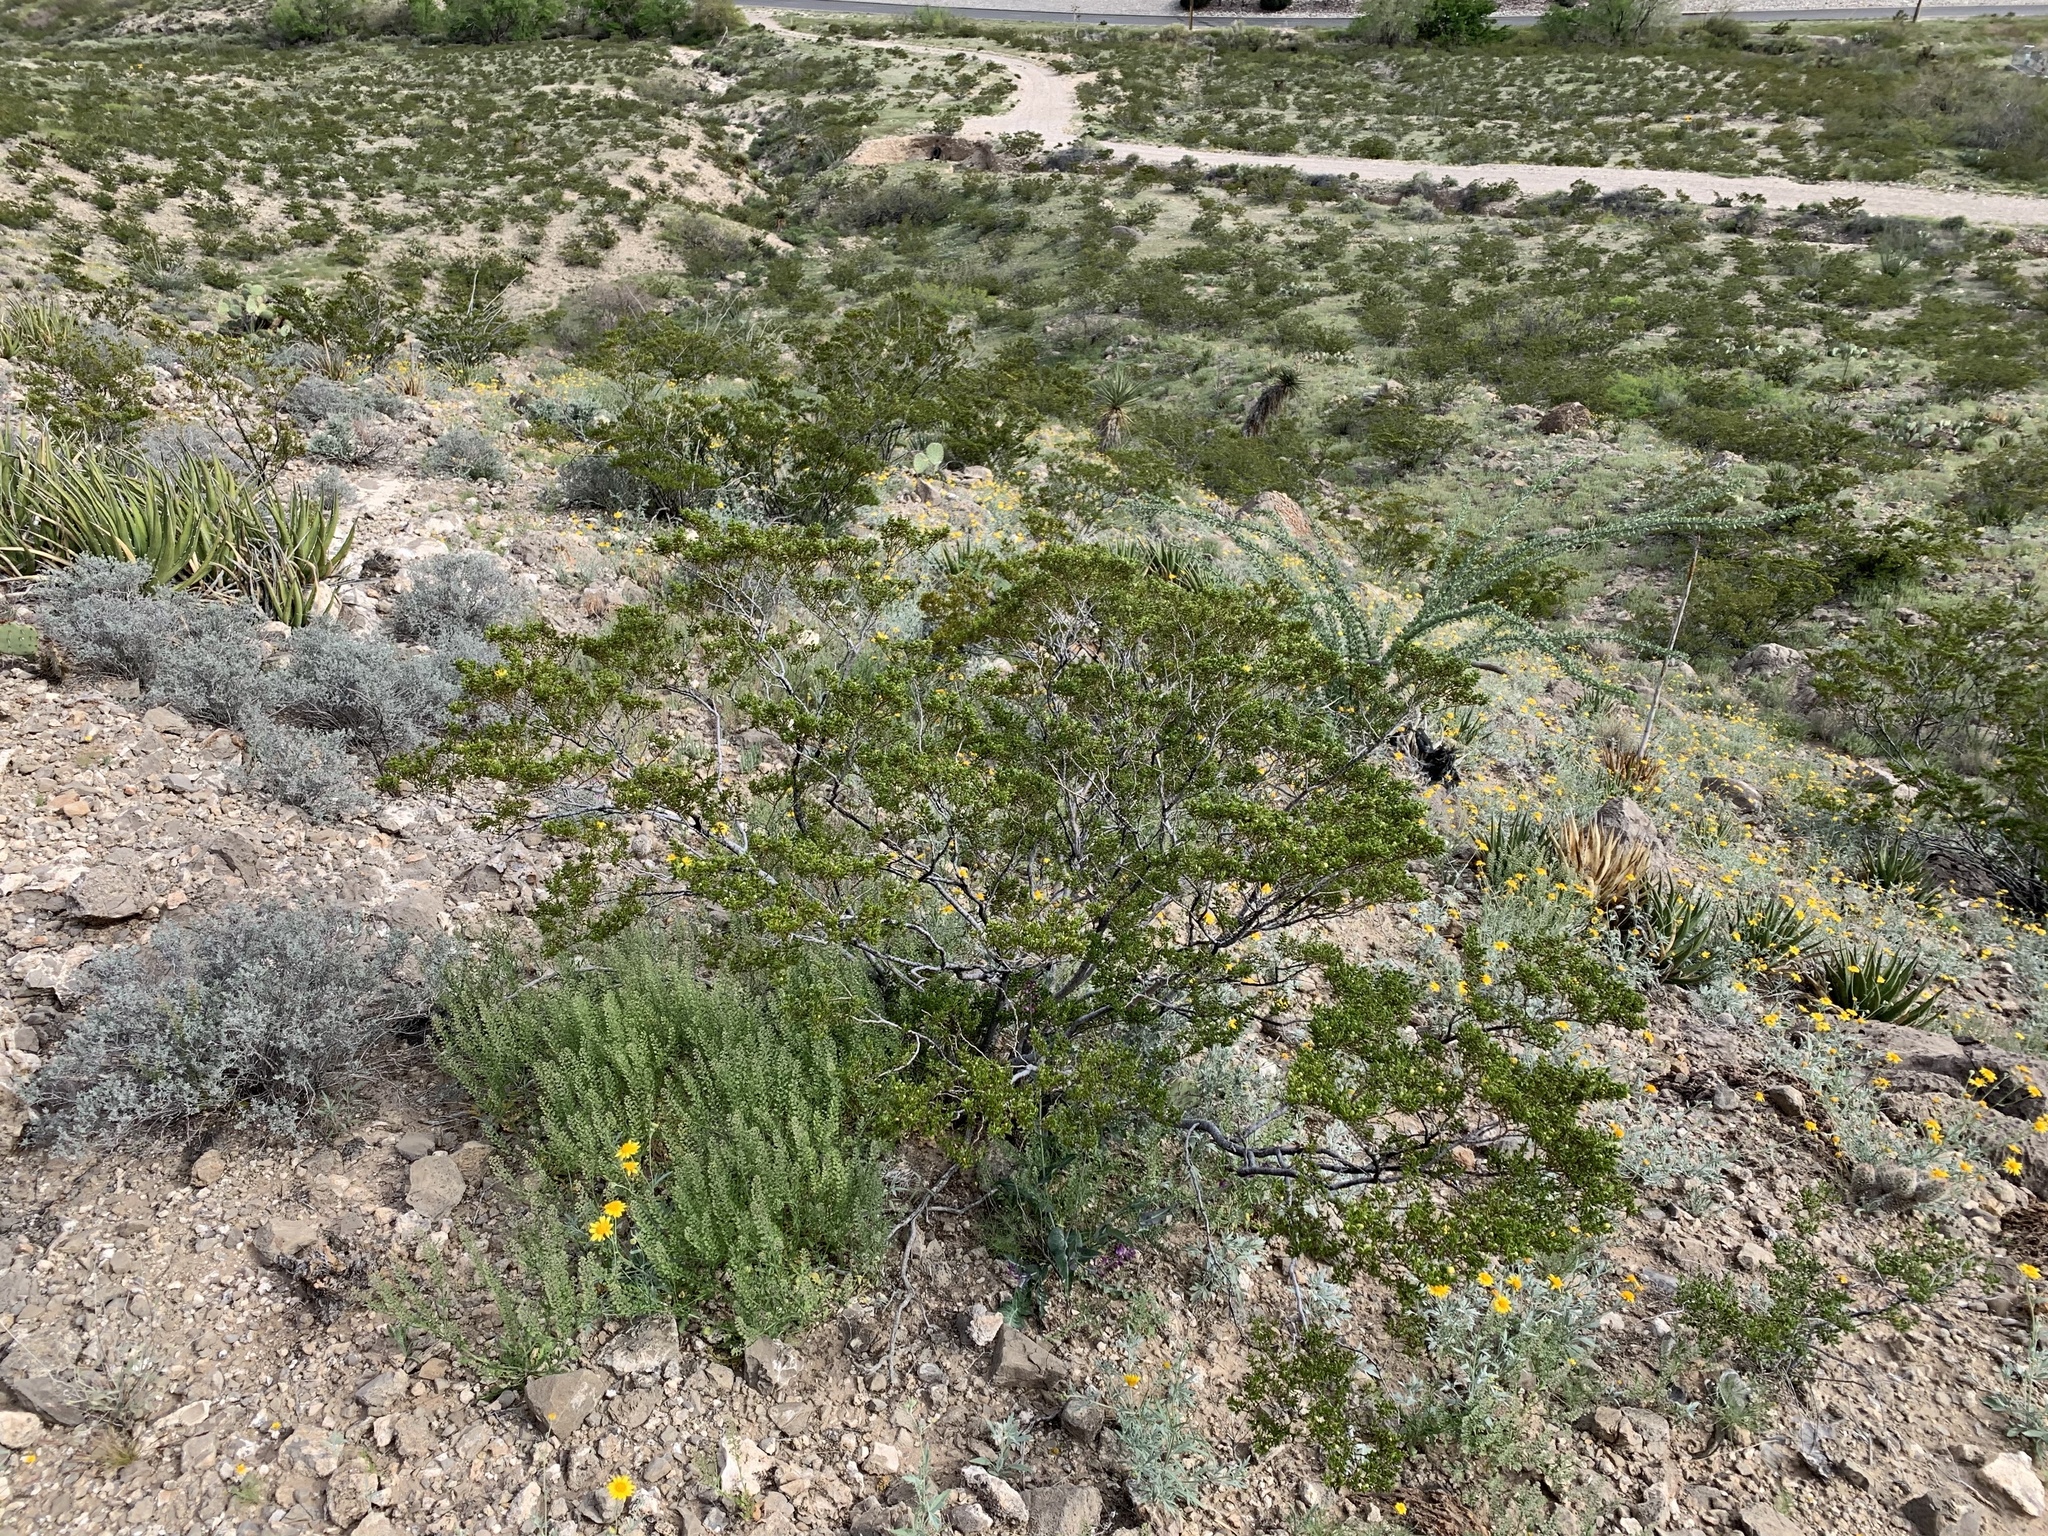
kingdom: Plantae
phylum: Tracheophyta
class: Magnoliopsida
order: Zygophyllales
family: Zygophyllaceae
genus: Larrea
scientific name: Larrea tridentata
